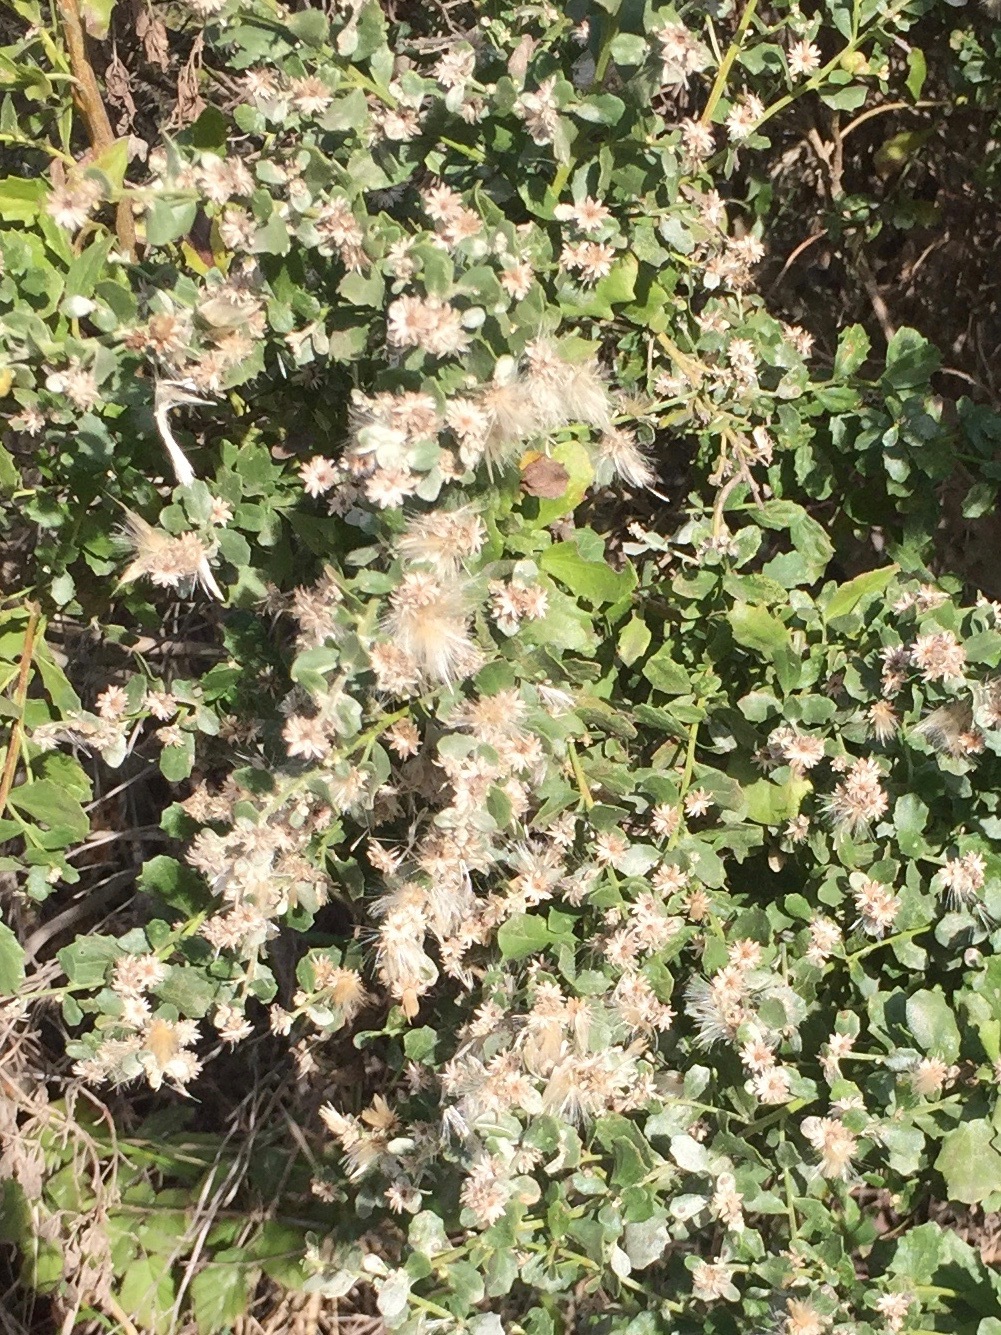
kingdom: Plantae
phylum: Tracheophyta
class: Magnoliopsida
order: Asterales
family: Asteraceae
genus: Baccharis
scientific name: Baccharis pilularis
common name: Coyotebrush
